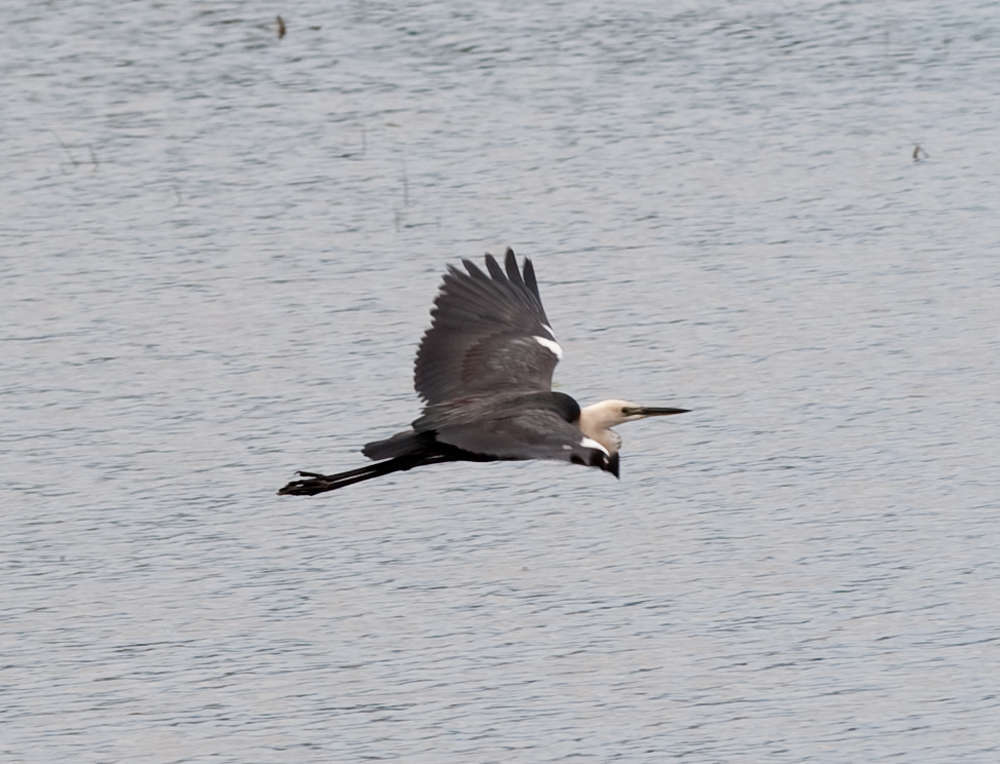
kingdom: Animalia
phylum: Chordata
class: Aves
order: Pelecaniformes
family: Ardeidae
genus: Ardea
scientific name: Ardea pacifica
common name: White-necked heron
